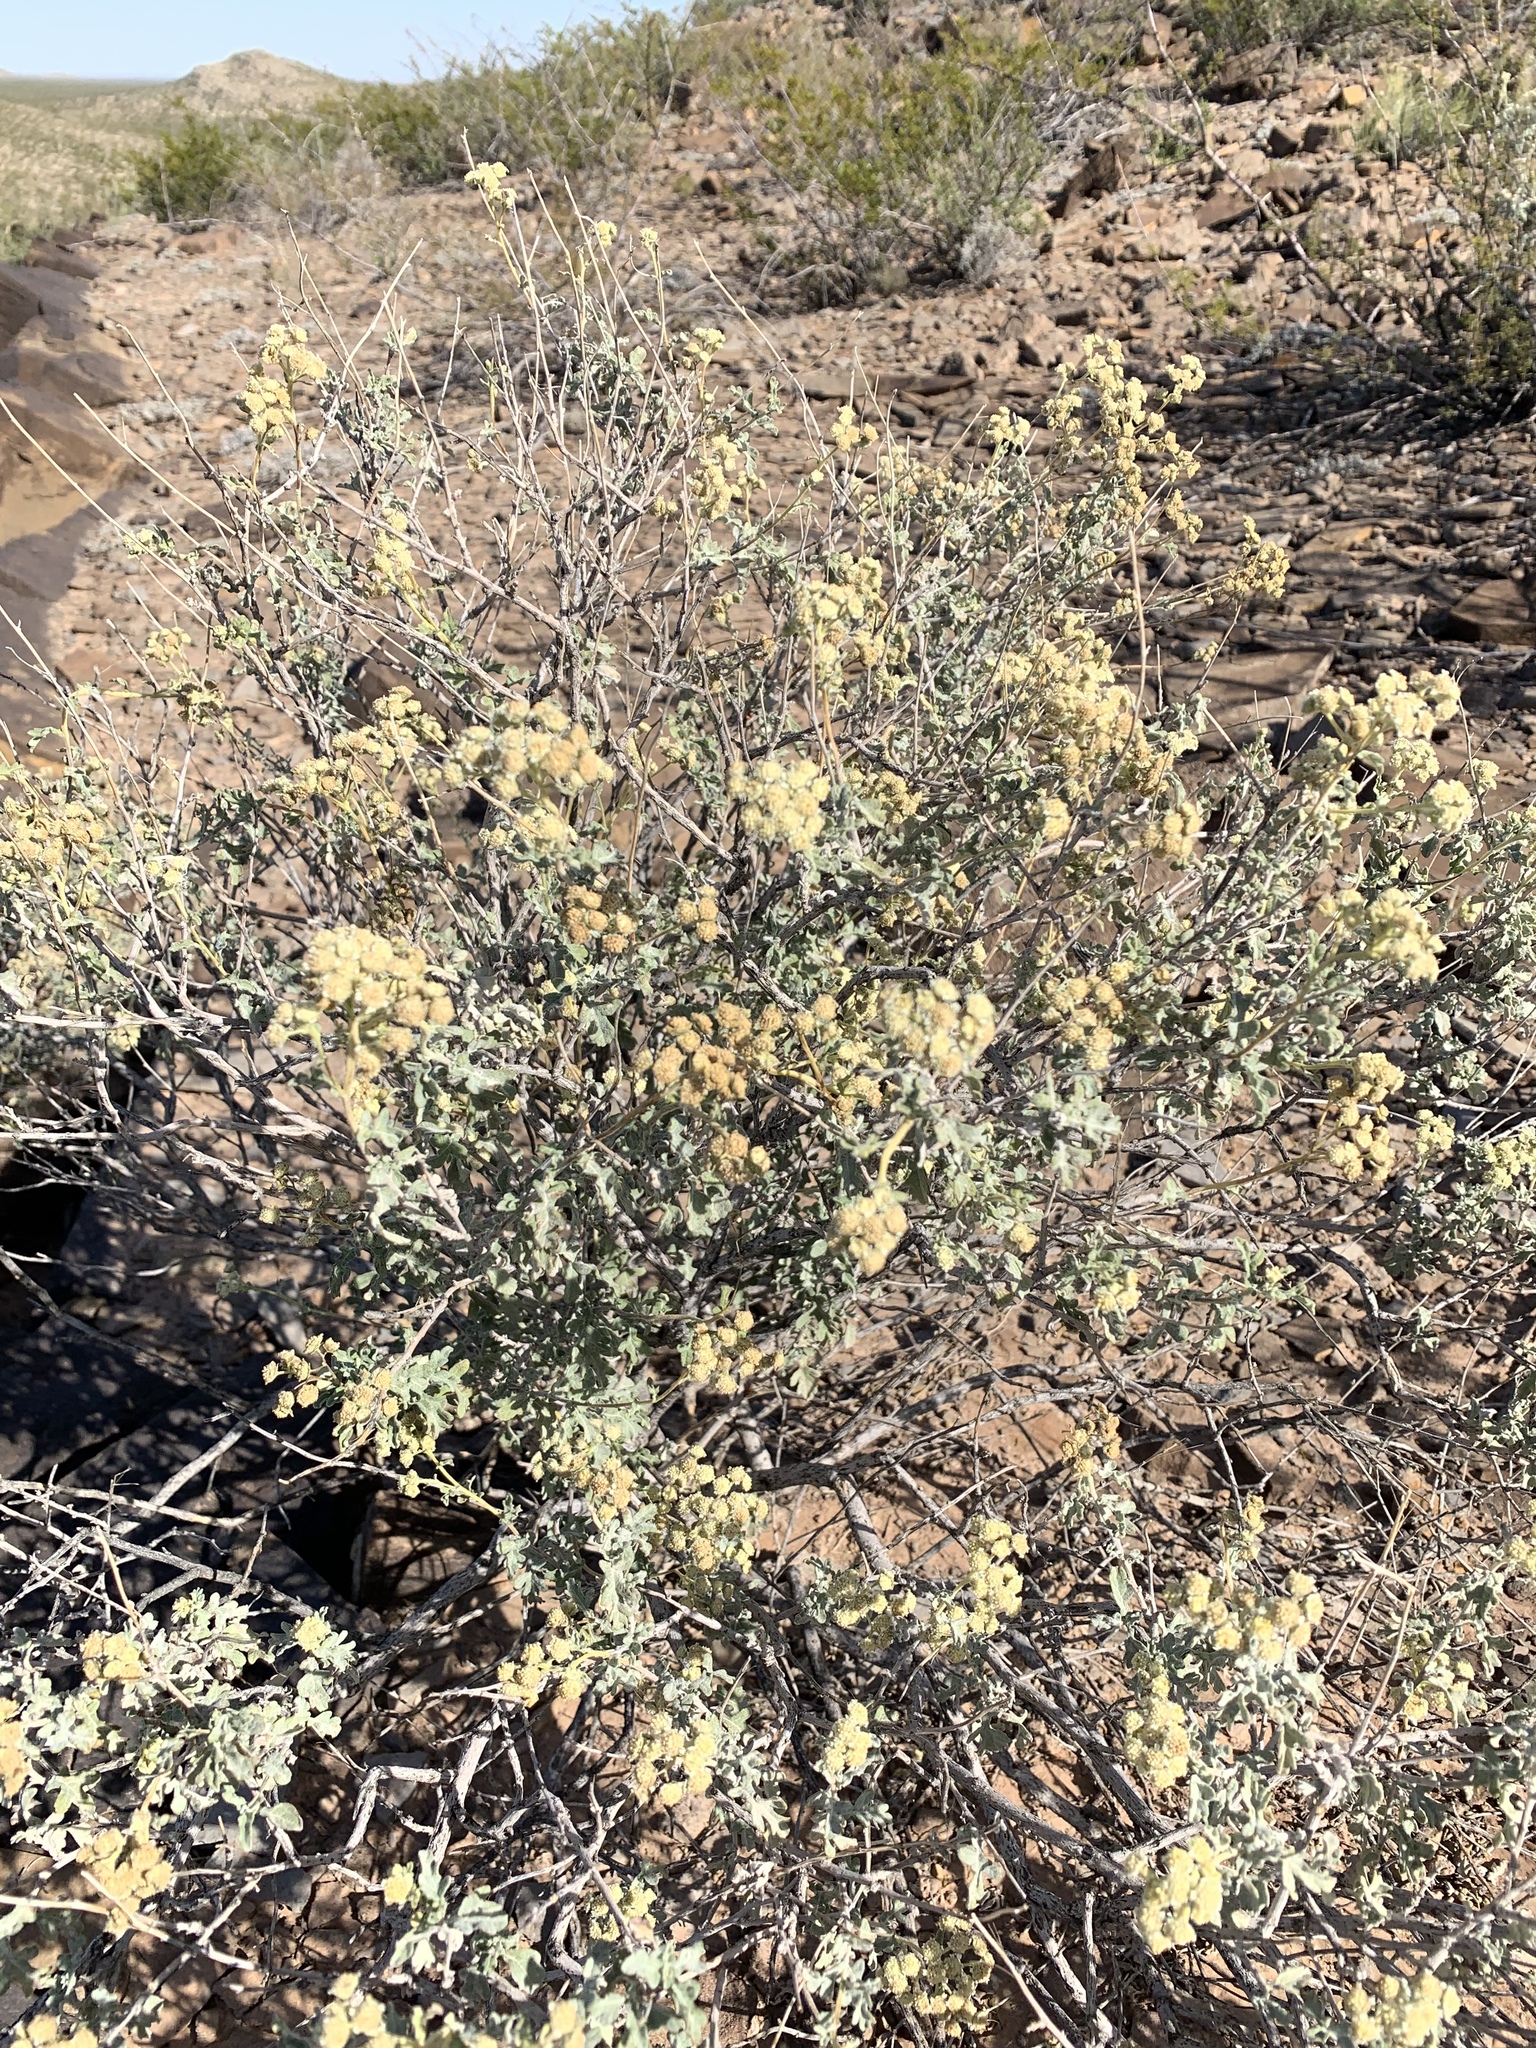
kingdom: Plantae
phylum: Tracheophyta
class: Magnoliopsida
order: Asterales
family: Asteraceae
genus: Parthenium
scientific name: Parthenium incanum
